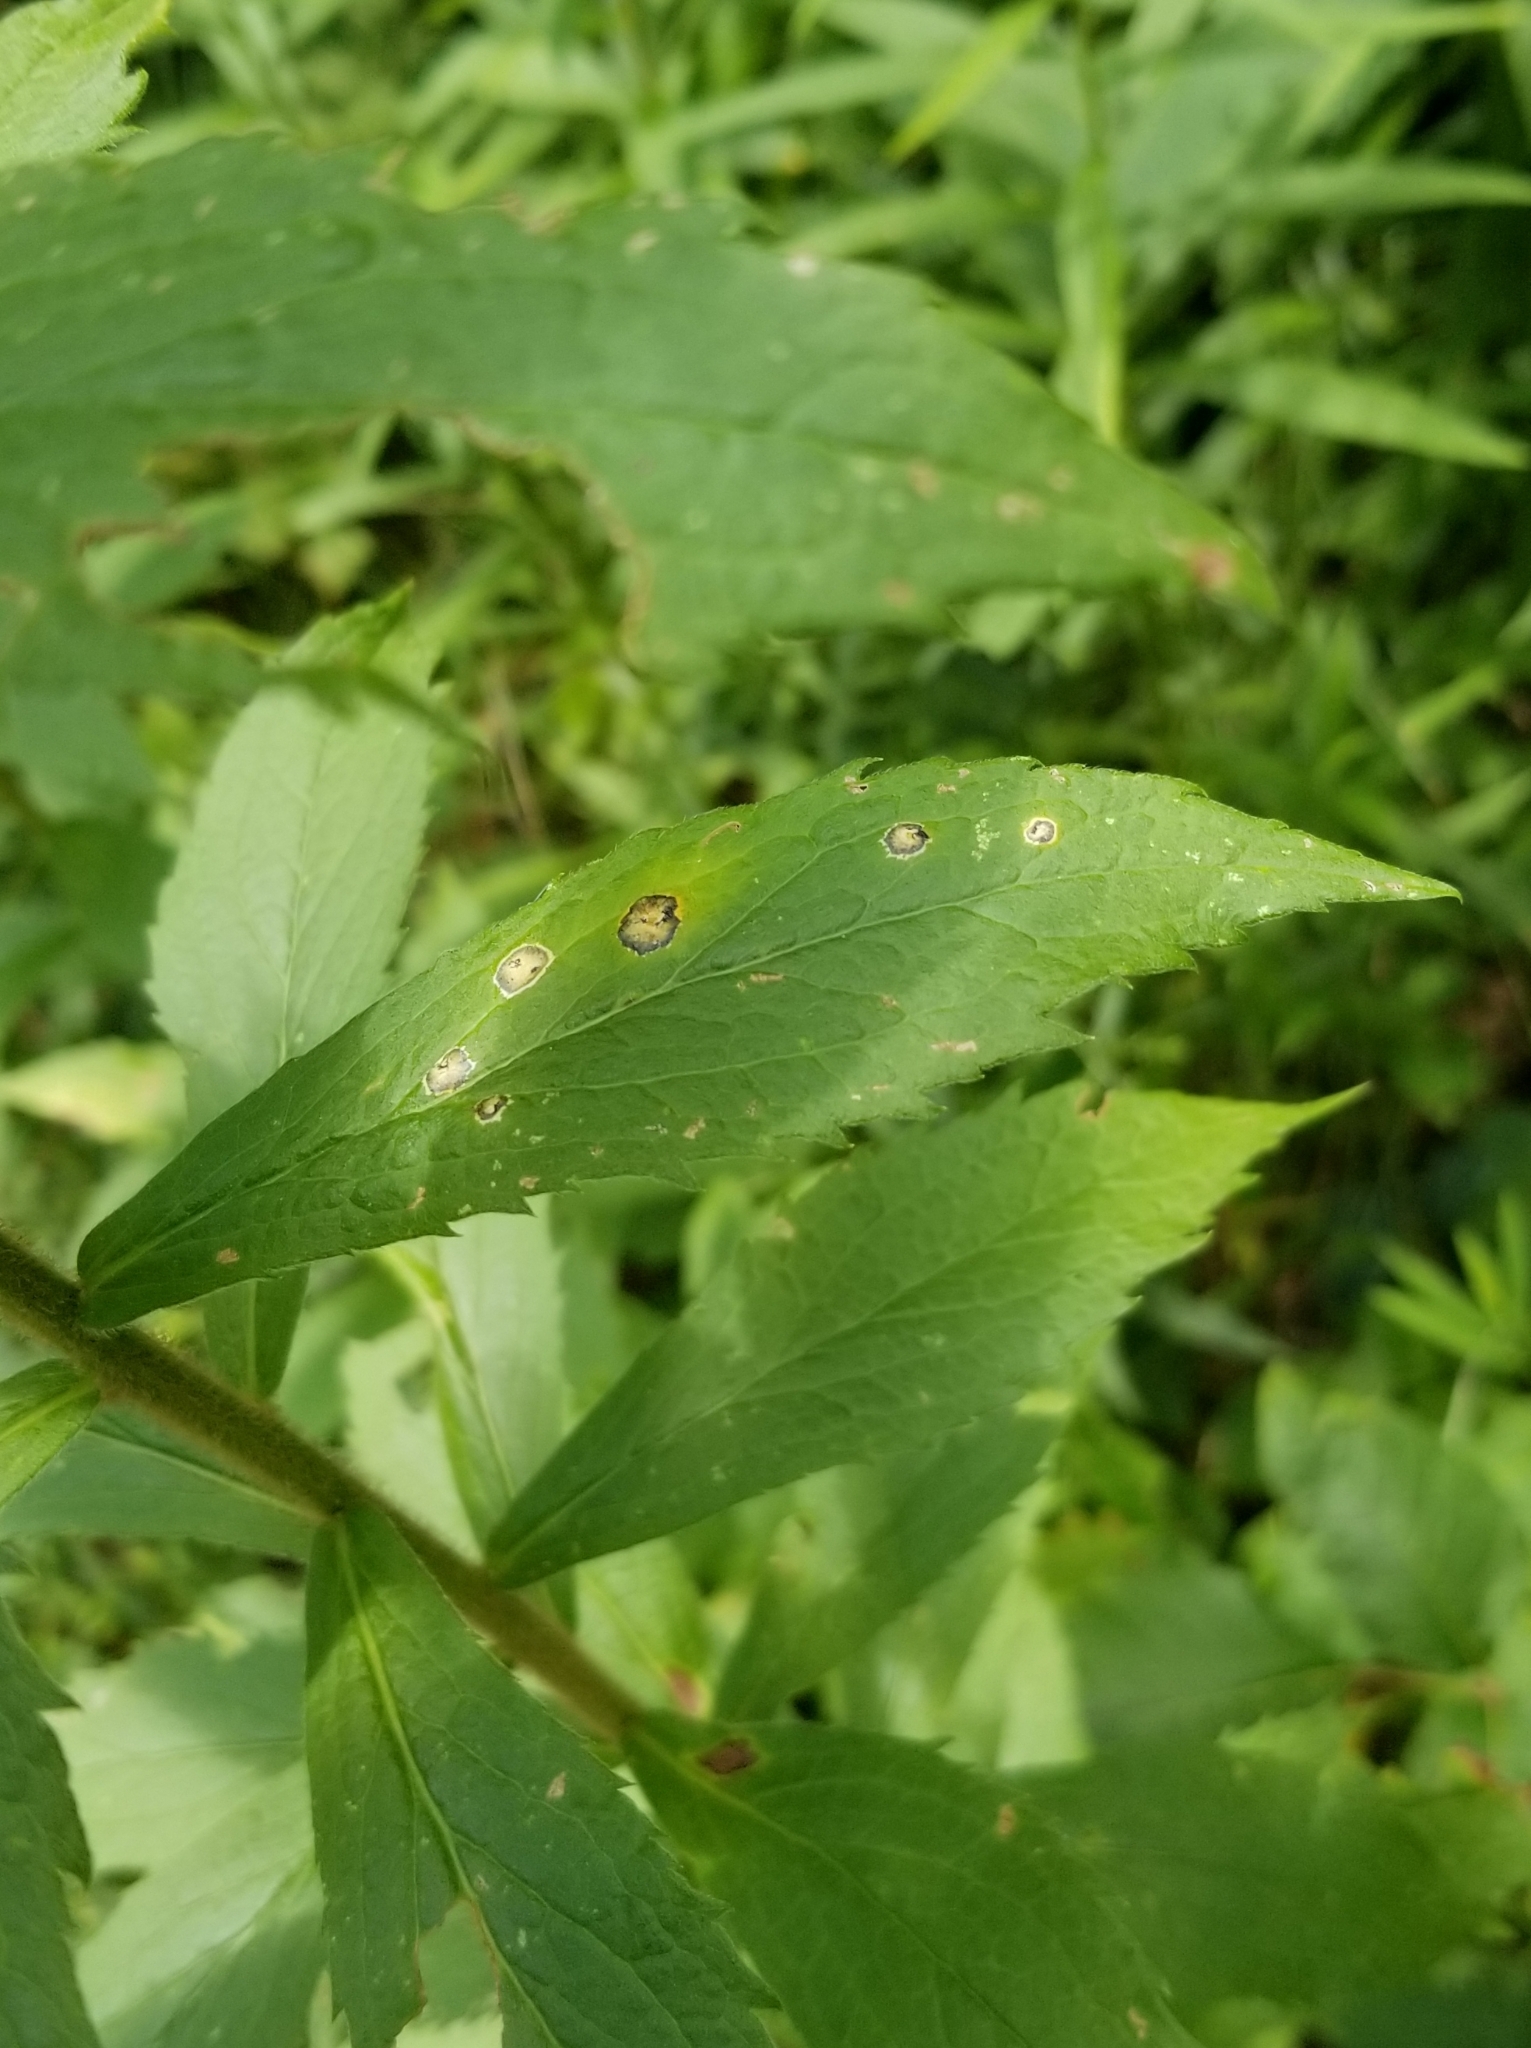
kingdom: Animalia
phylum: Arthropoda
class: Insecta
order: Diptera
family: Cecidomyiidae
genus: Asteromyia
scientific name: Asteromyia carbonifera
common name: Carbonifera goldenrod gall midge
